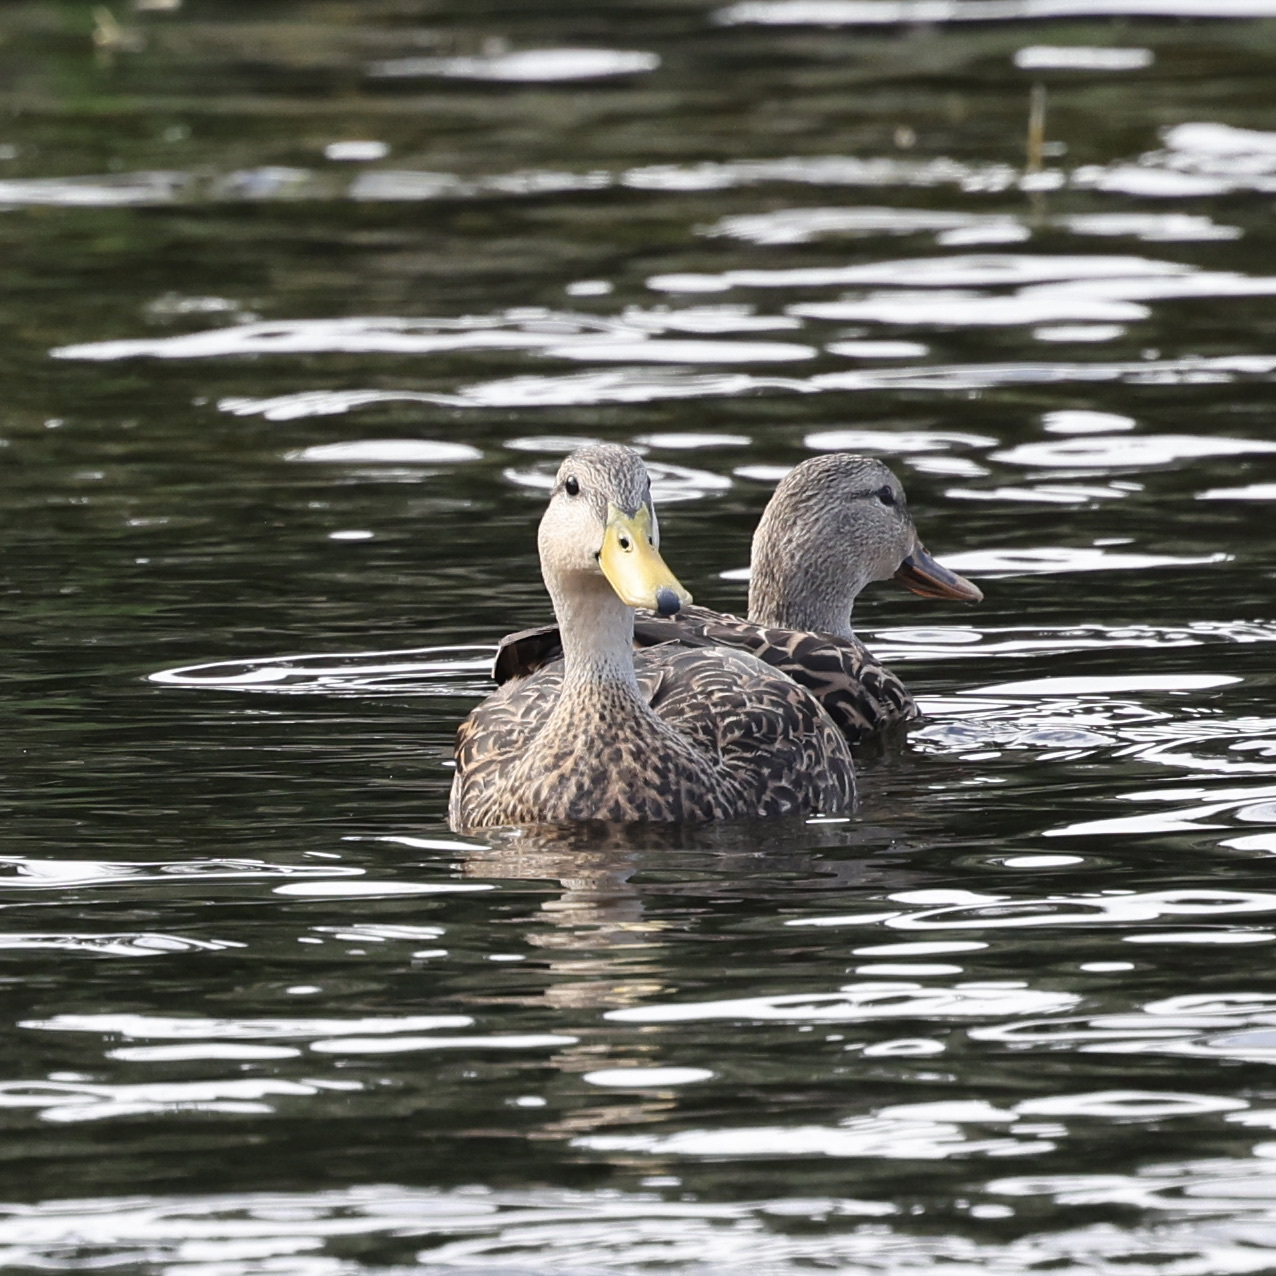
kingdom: Animalia
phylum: Chordata
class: Aves
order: Anseriformes
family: Anatidae
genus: Anas
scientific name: Anas
